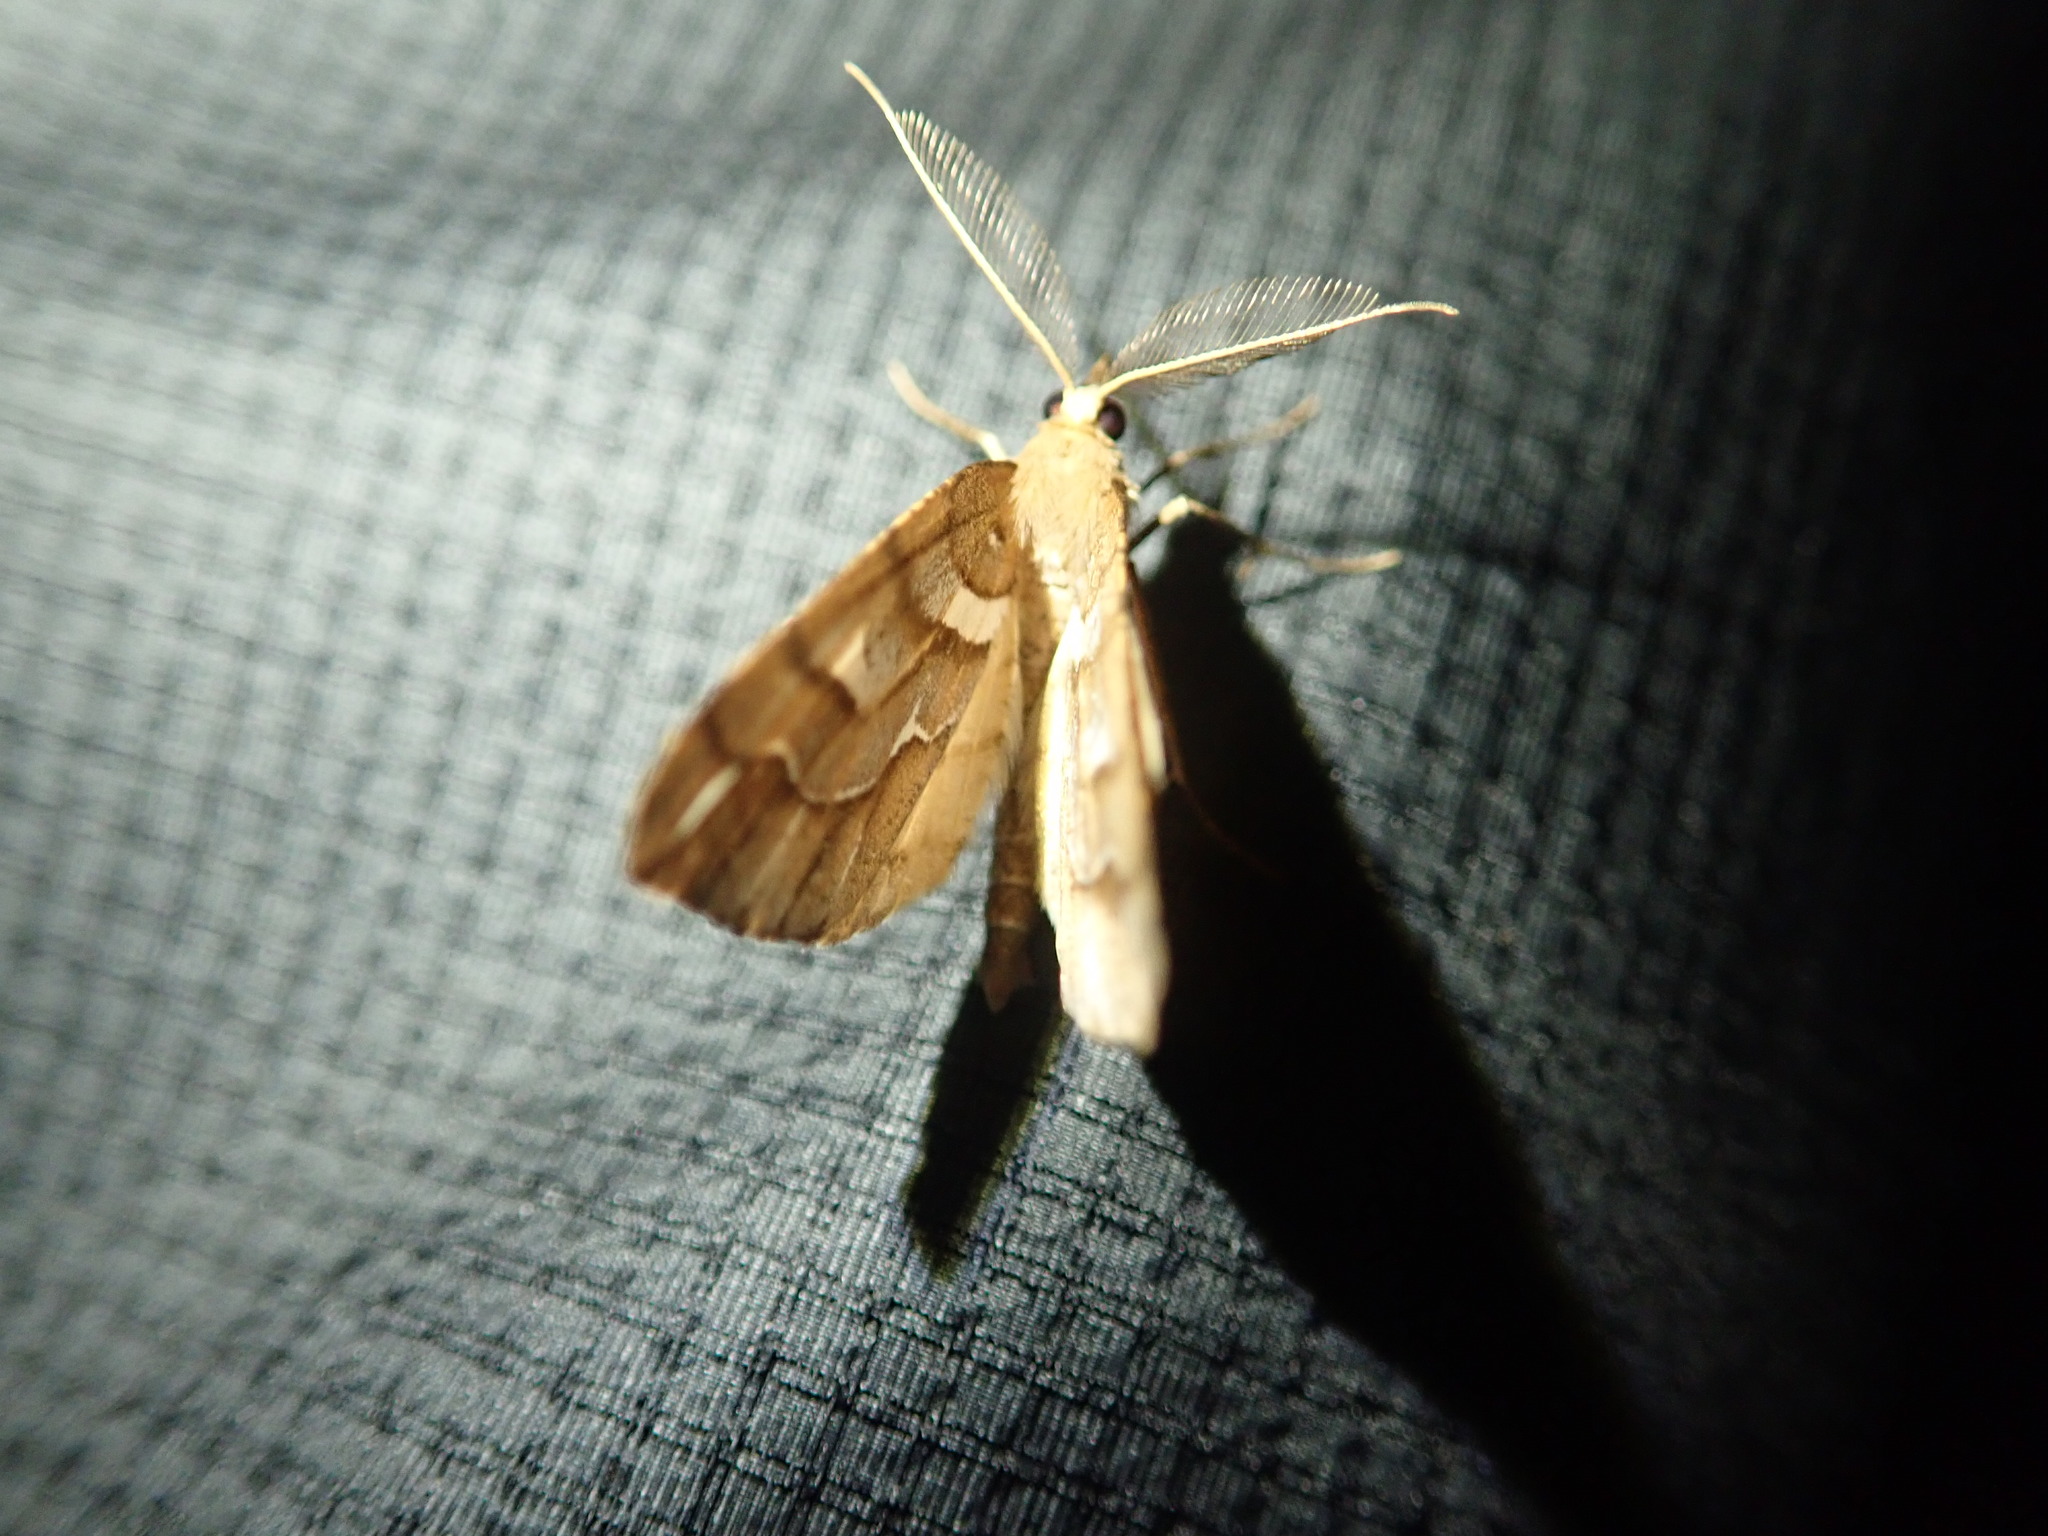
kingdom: Animalia
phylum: Arthropoda
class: Insecta
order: Lepidoptera
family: Geometridae
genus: Chalastra
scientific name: Chalastra aristarcha
